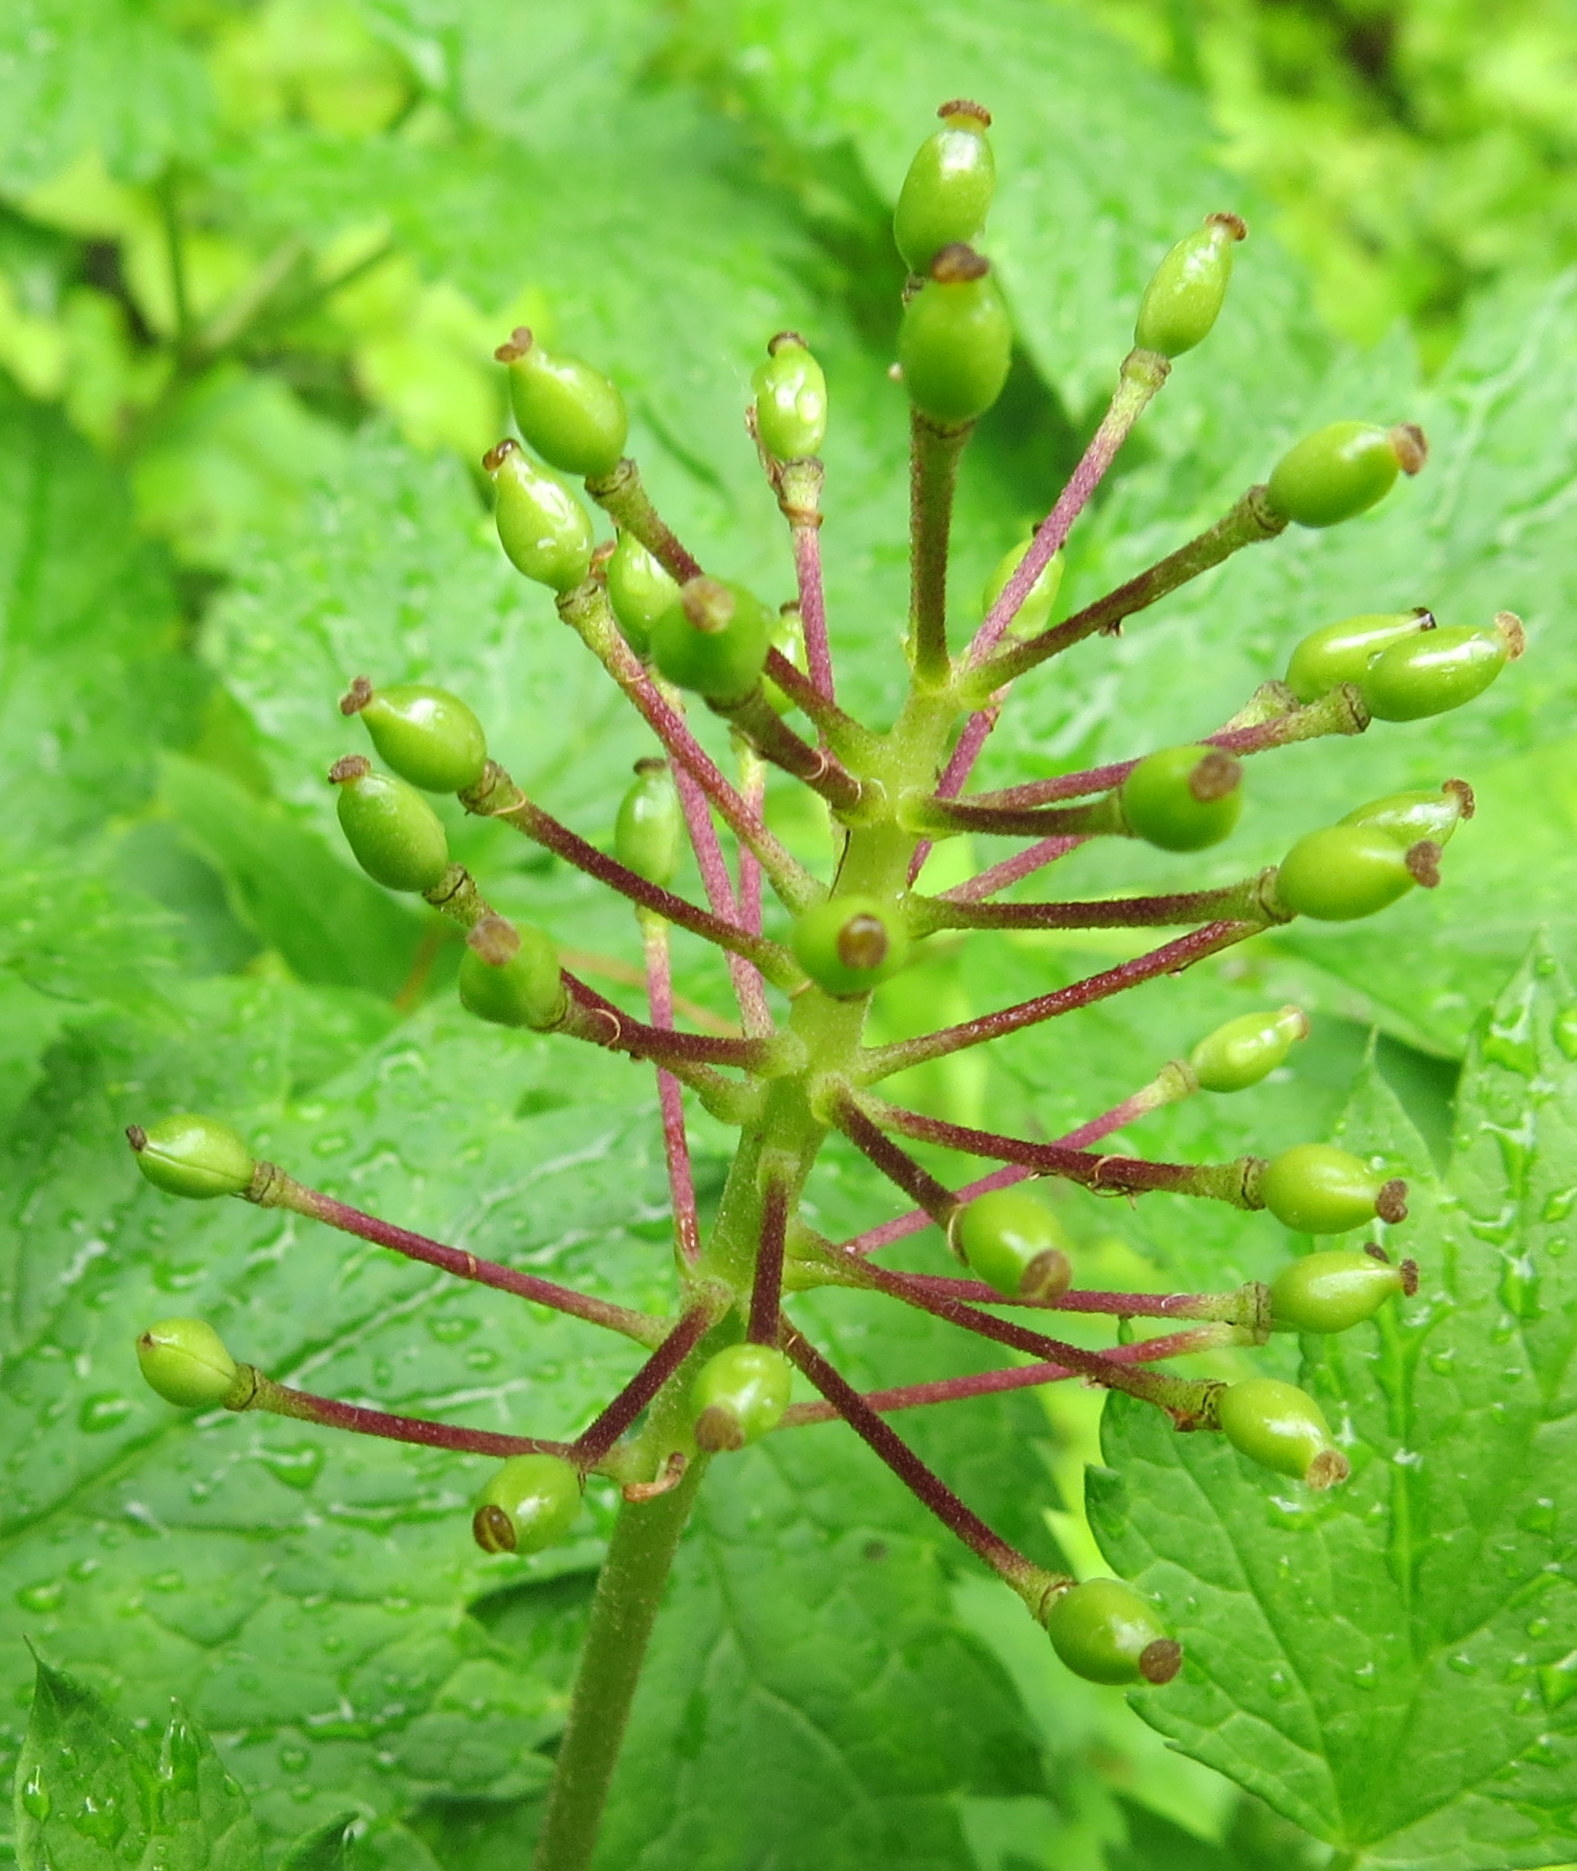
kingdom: Plantae
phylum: Tracheophyta
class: Magnoliopsida
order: Ranunculales
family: Ranunculaceae
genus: Actaea
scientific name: Actaea rubra
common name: Red baneberry
